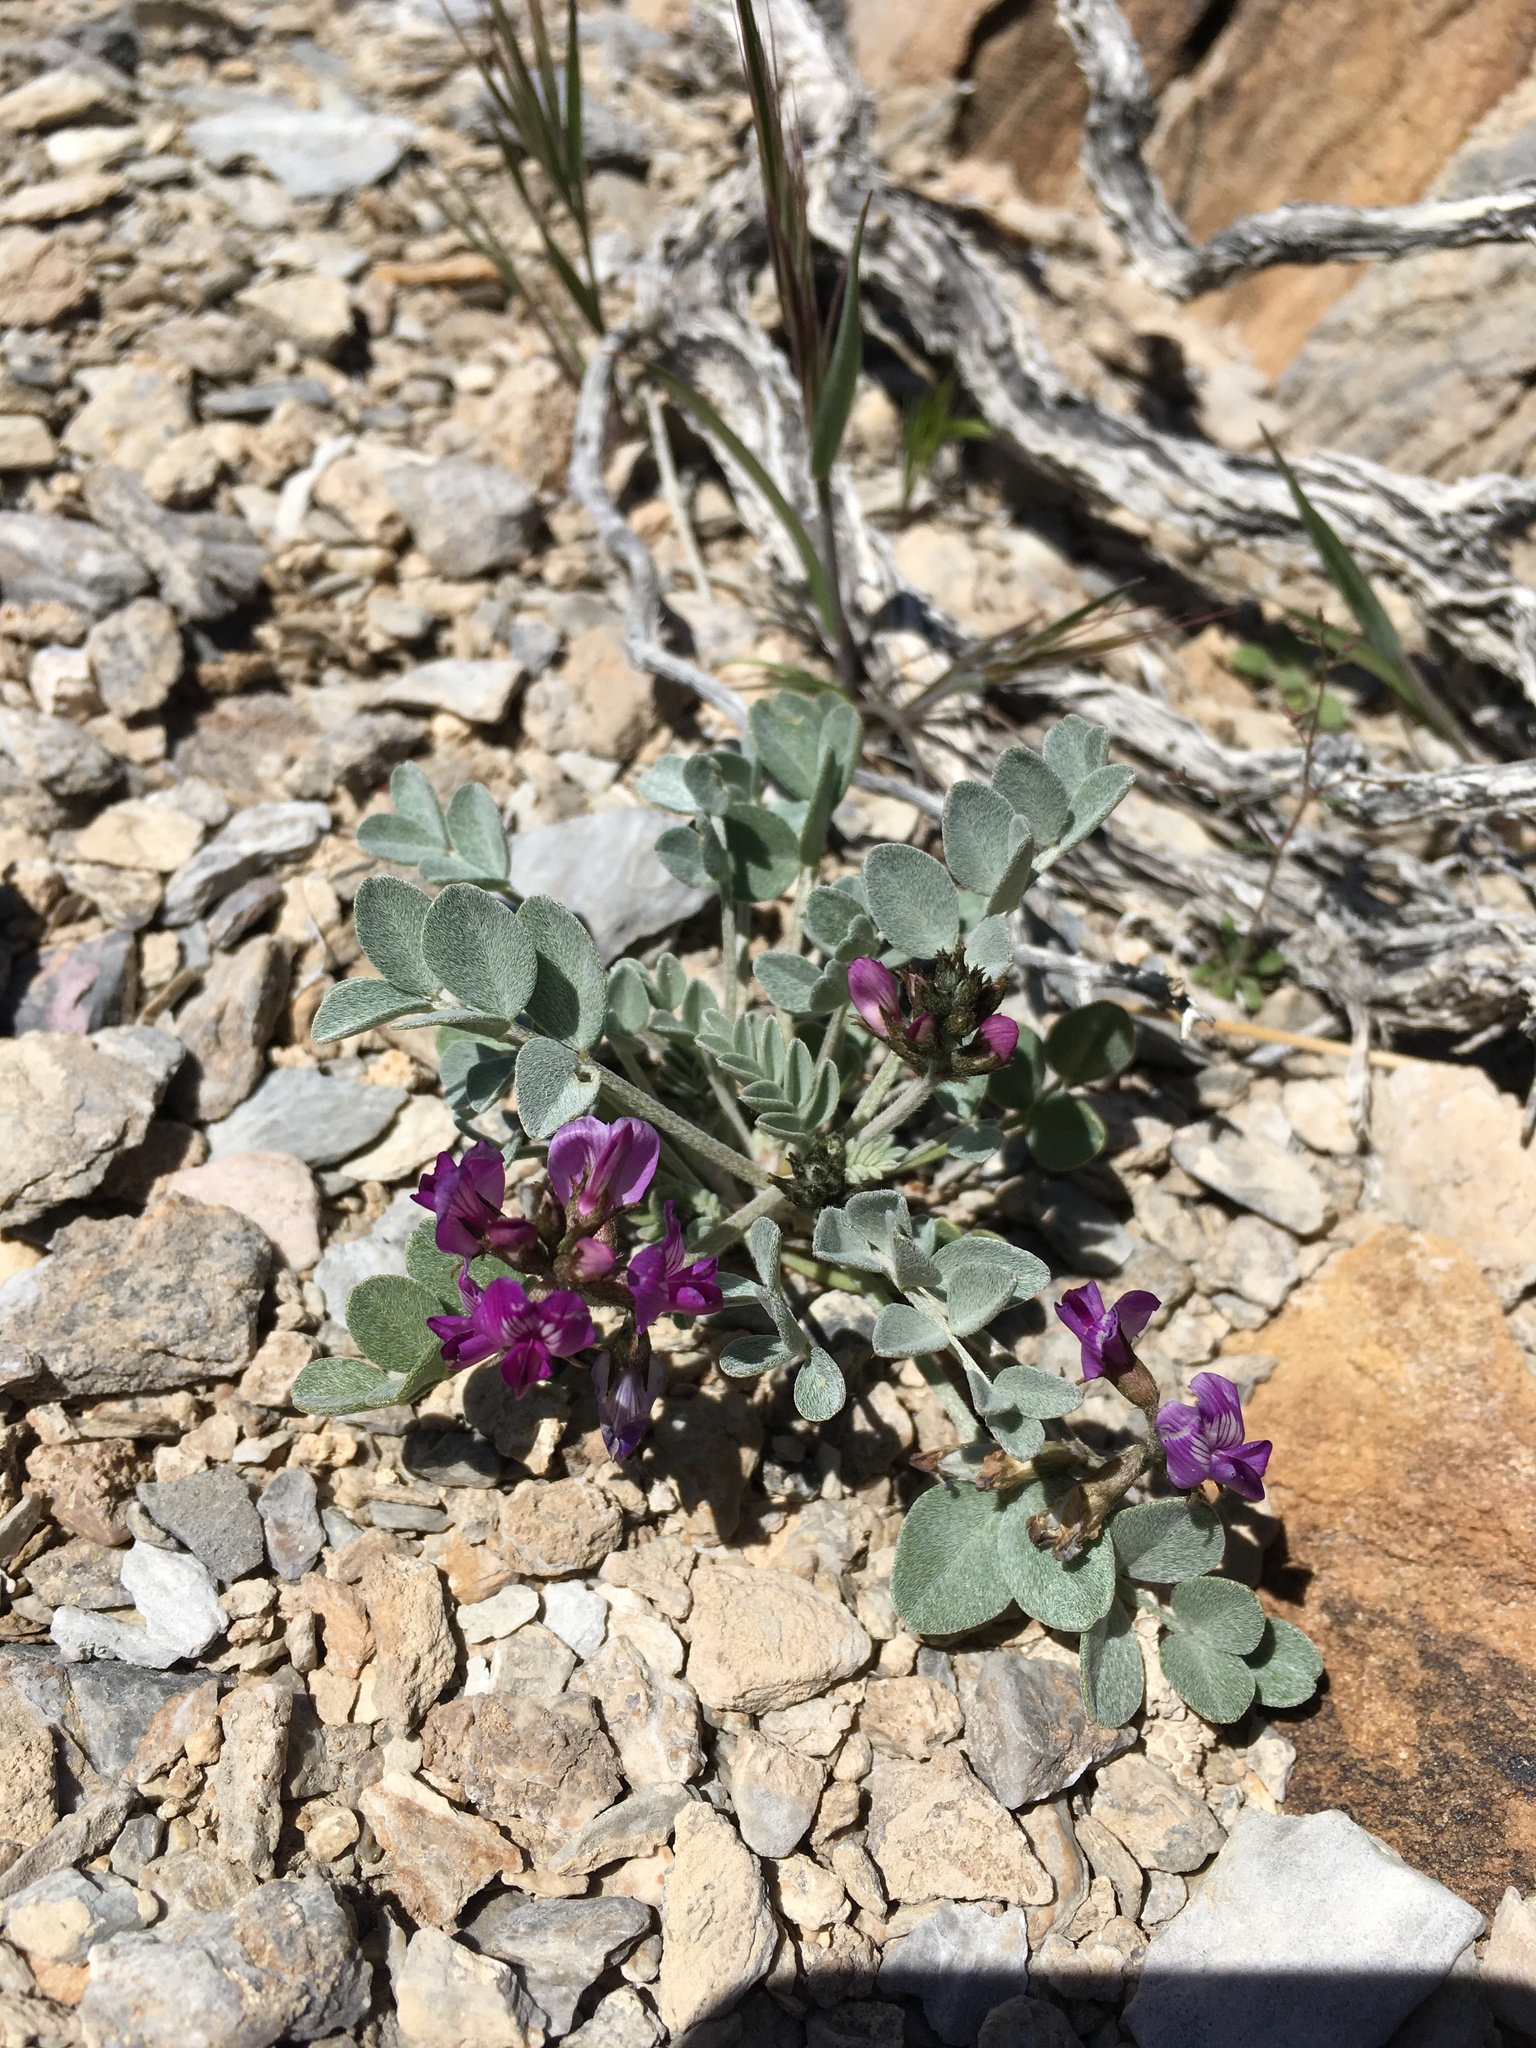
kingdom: Plantae
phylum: Tracheophyta
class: Magnoliopsida
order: Fabales
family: Fabaceae
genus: Astragalus
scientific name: Astragalus mohavensis
